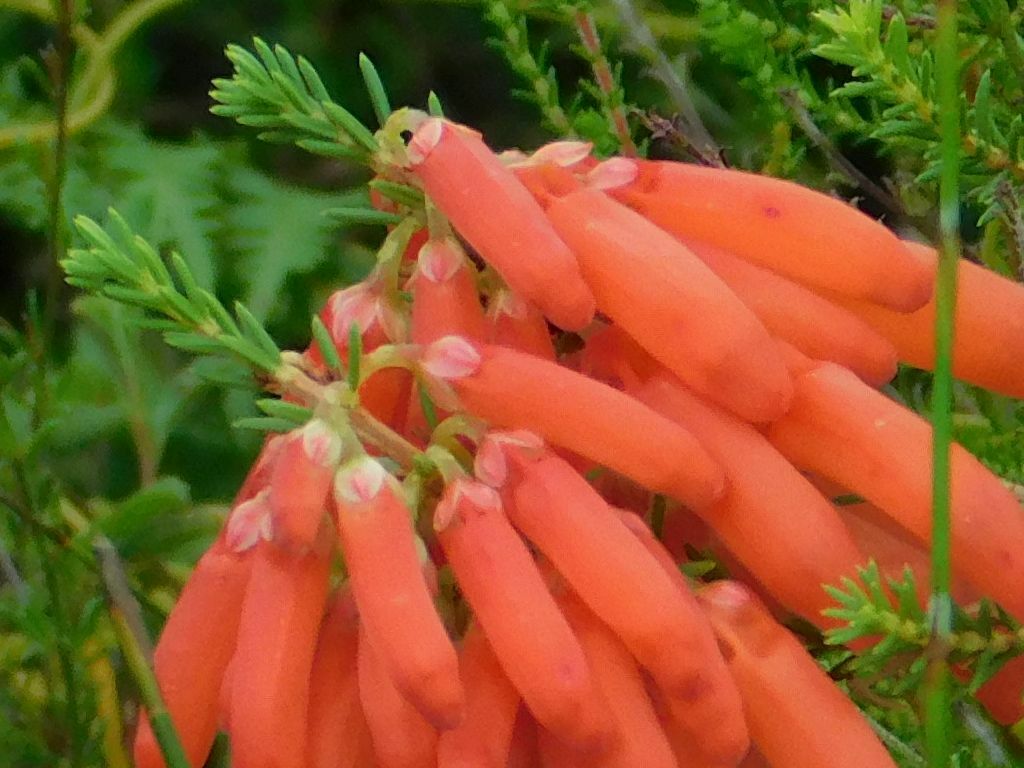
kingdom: Plantae
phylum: Tracheophyta
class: Magnoliopsida
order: Ericales
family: Ericaceae
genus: Erica
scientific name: Erica mammosa
